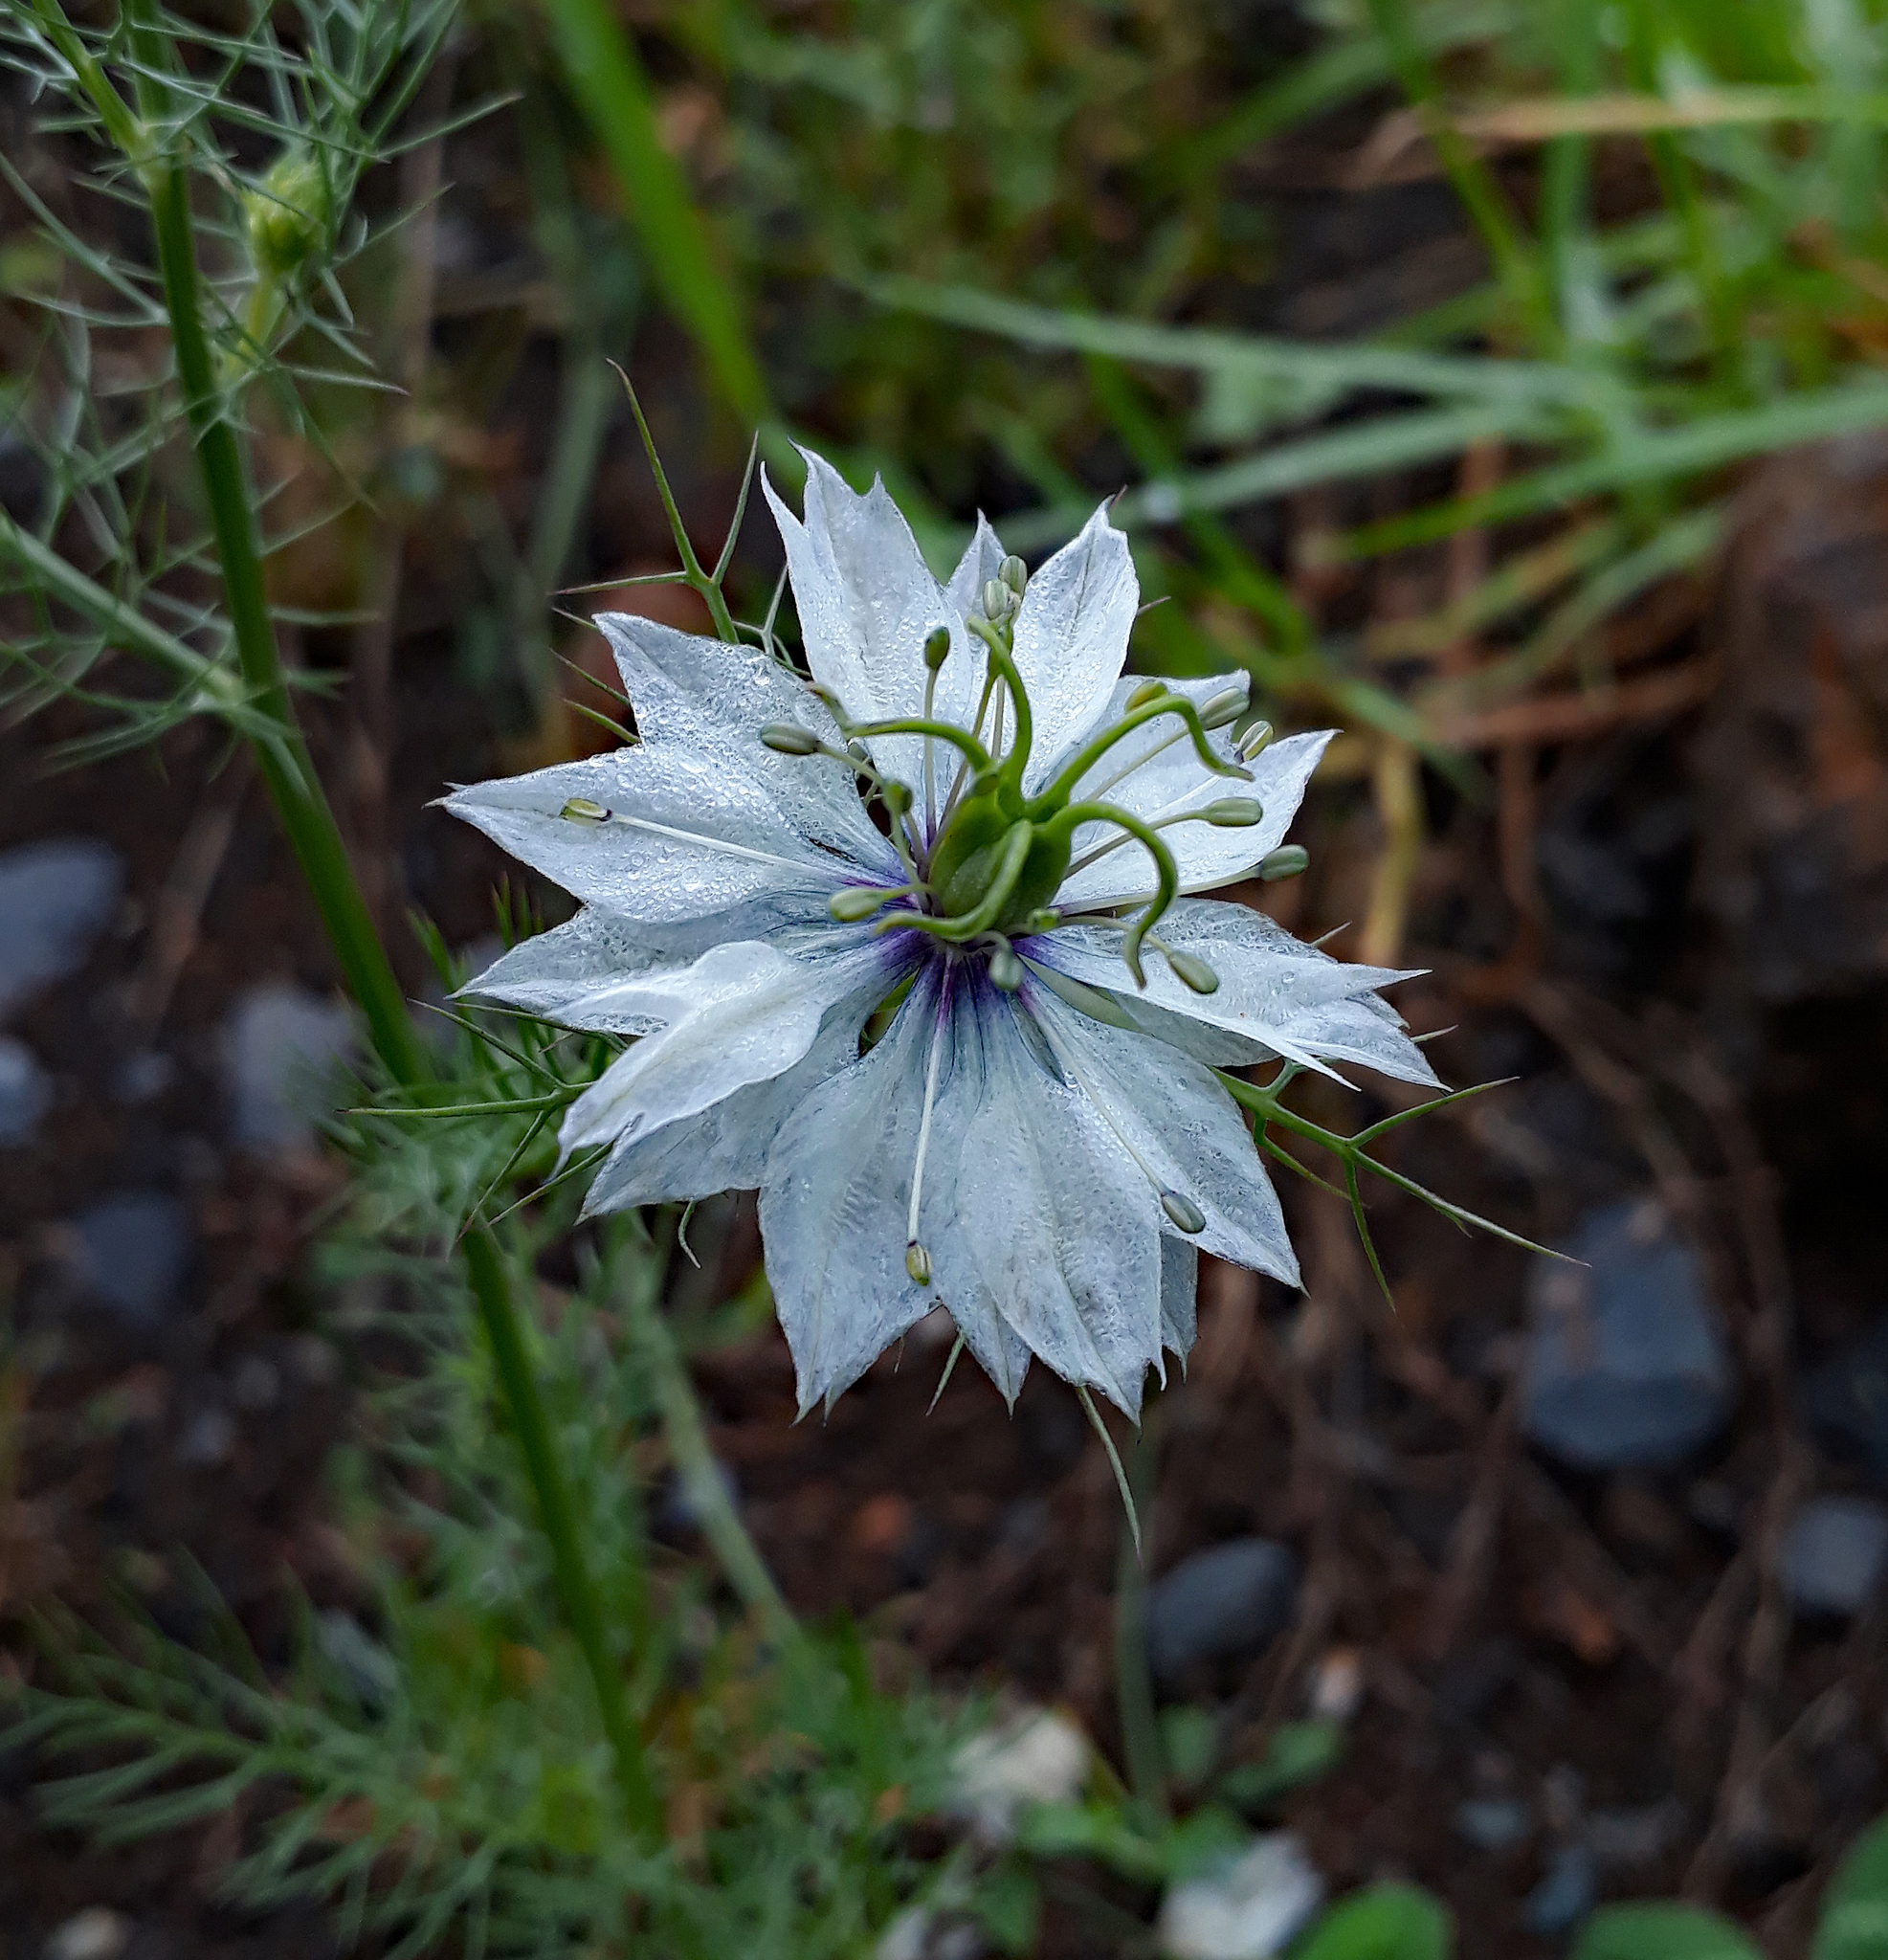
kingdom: Plantae
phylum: Tracheophyta
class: Magnoliopsida
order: Ranunculales
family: Ranunculaceae
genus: Nigella
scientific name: Nigella damascena
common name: Love-in-a-mist
